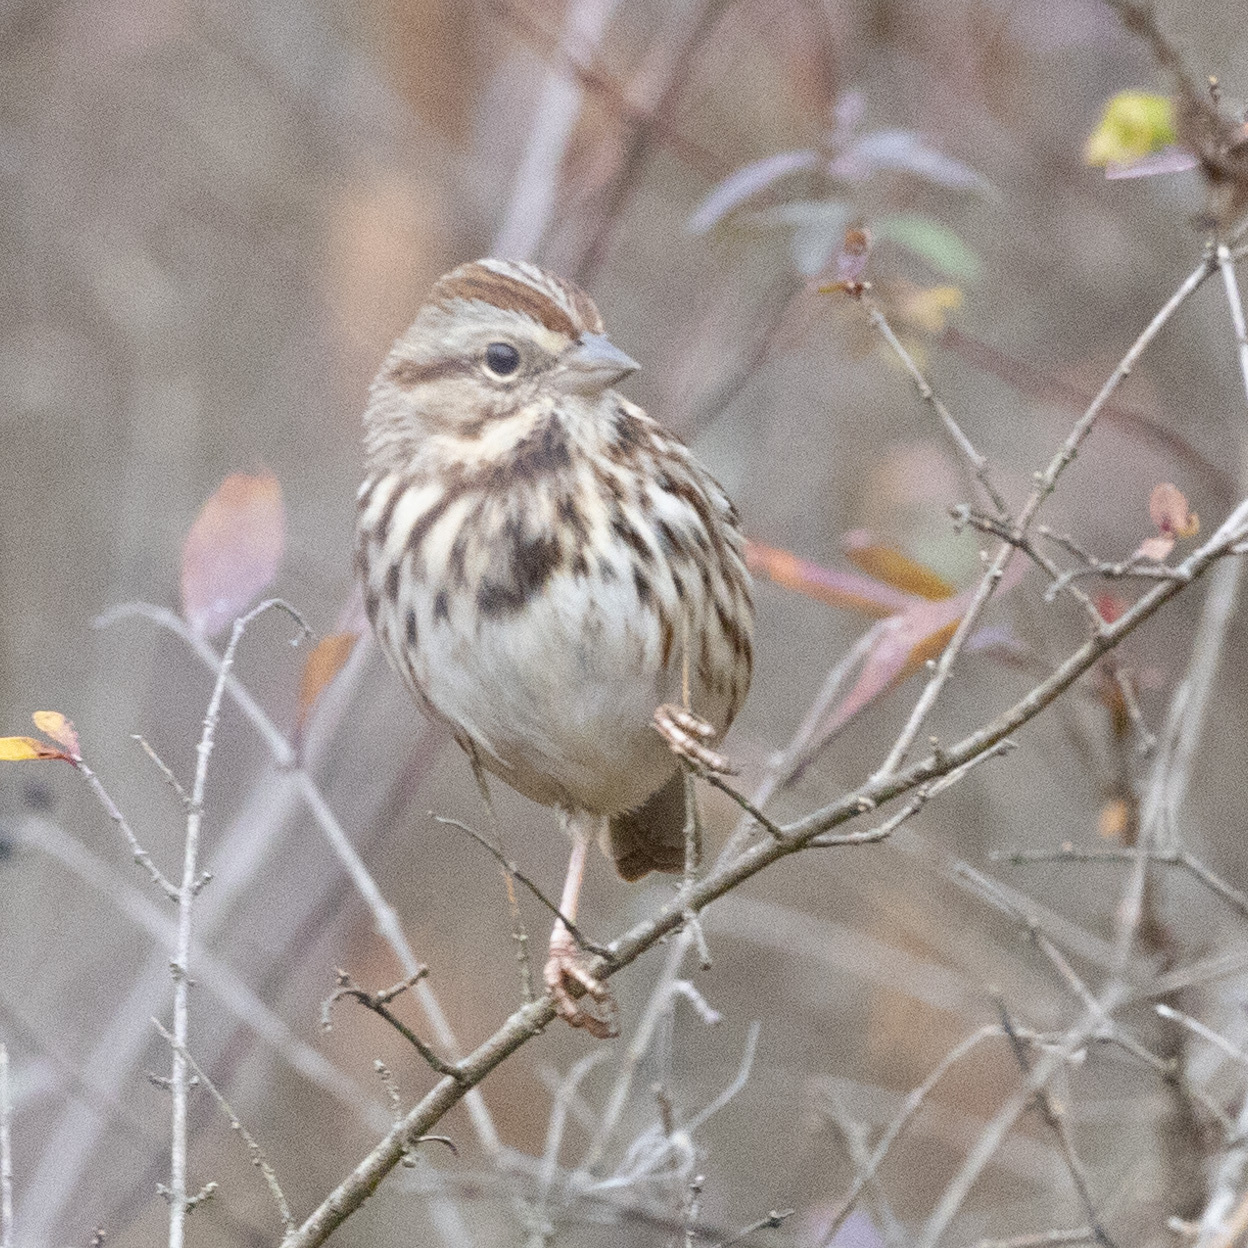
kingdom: Animalia
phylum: Chordata
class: Aves
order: Passeriformes
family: Passerellidae
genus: Melospiza
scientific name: Melospiza melodia
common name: Song sparrow
